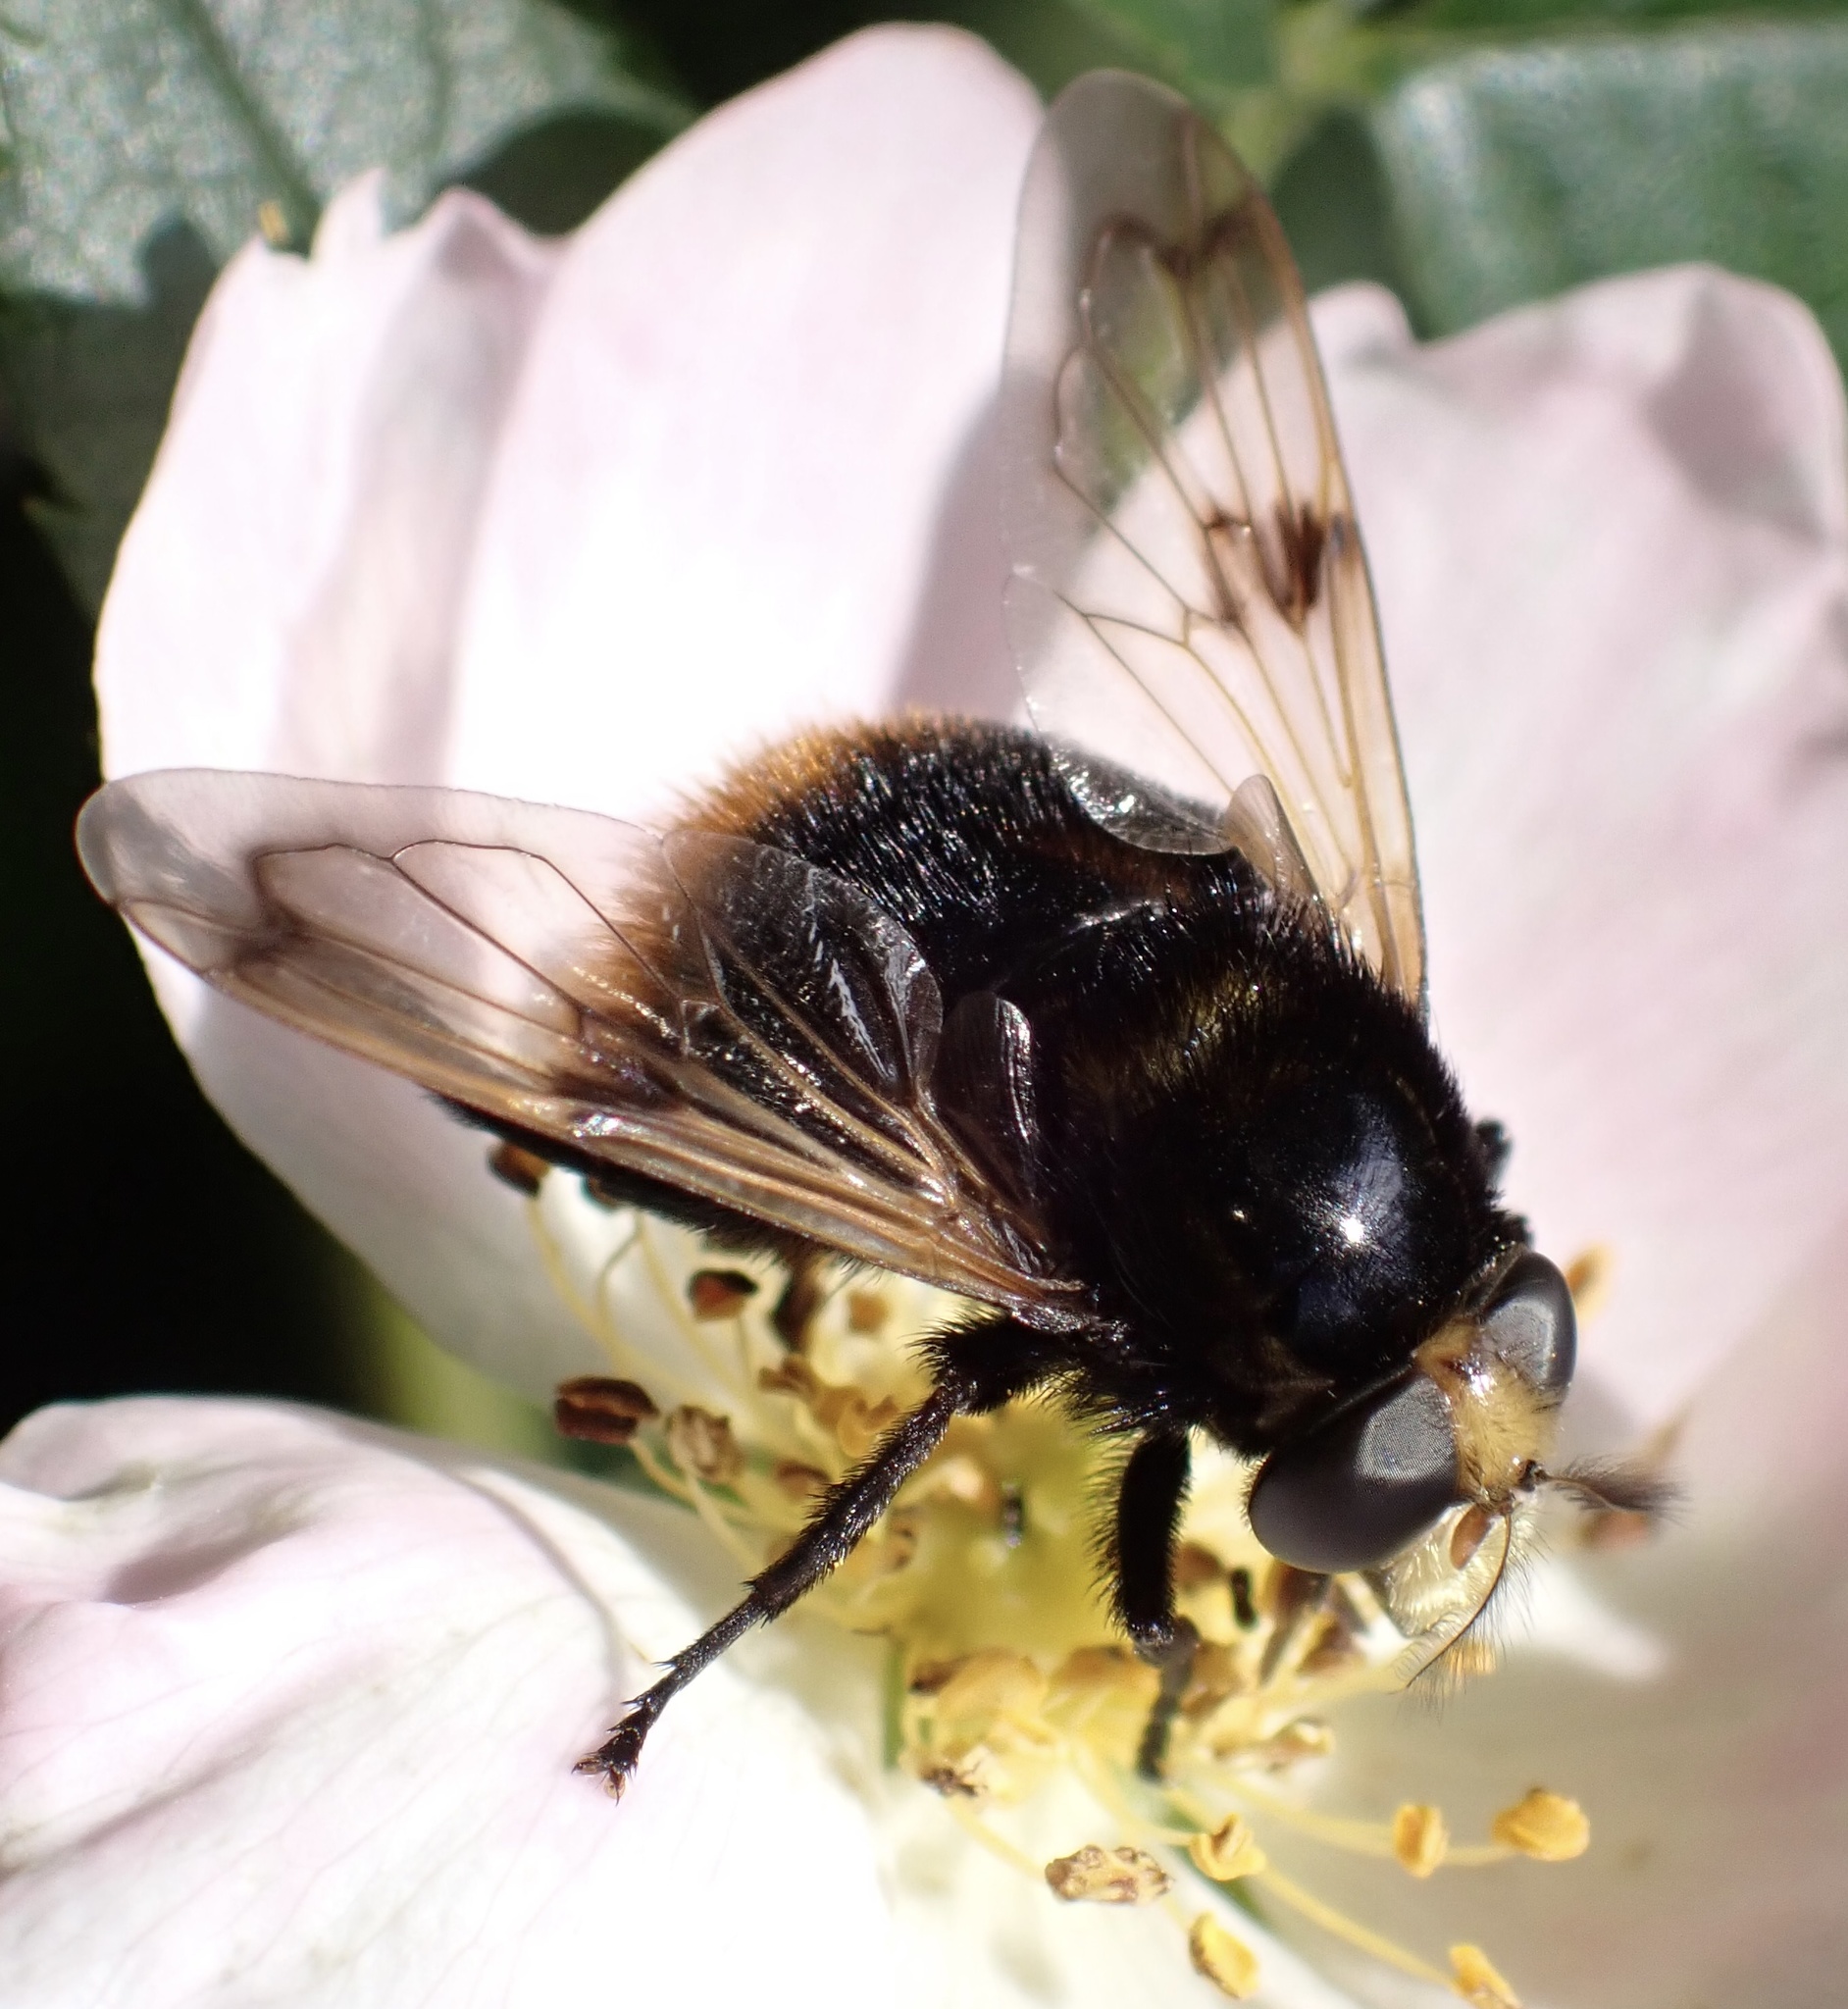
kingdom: Animalia
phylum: Arthropoda
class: Insecta
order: Diptera
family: Syrphidae
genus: Volucella
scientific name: Volucella bombylans
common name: Bumble bee hover fly
